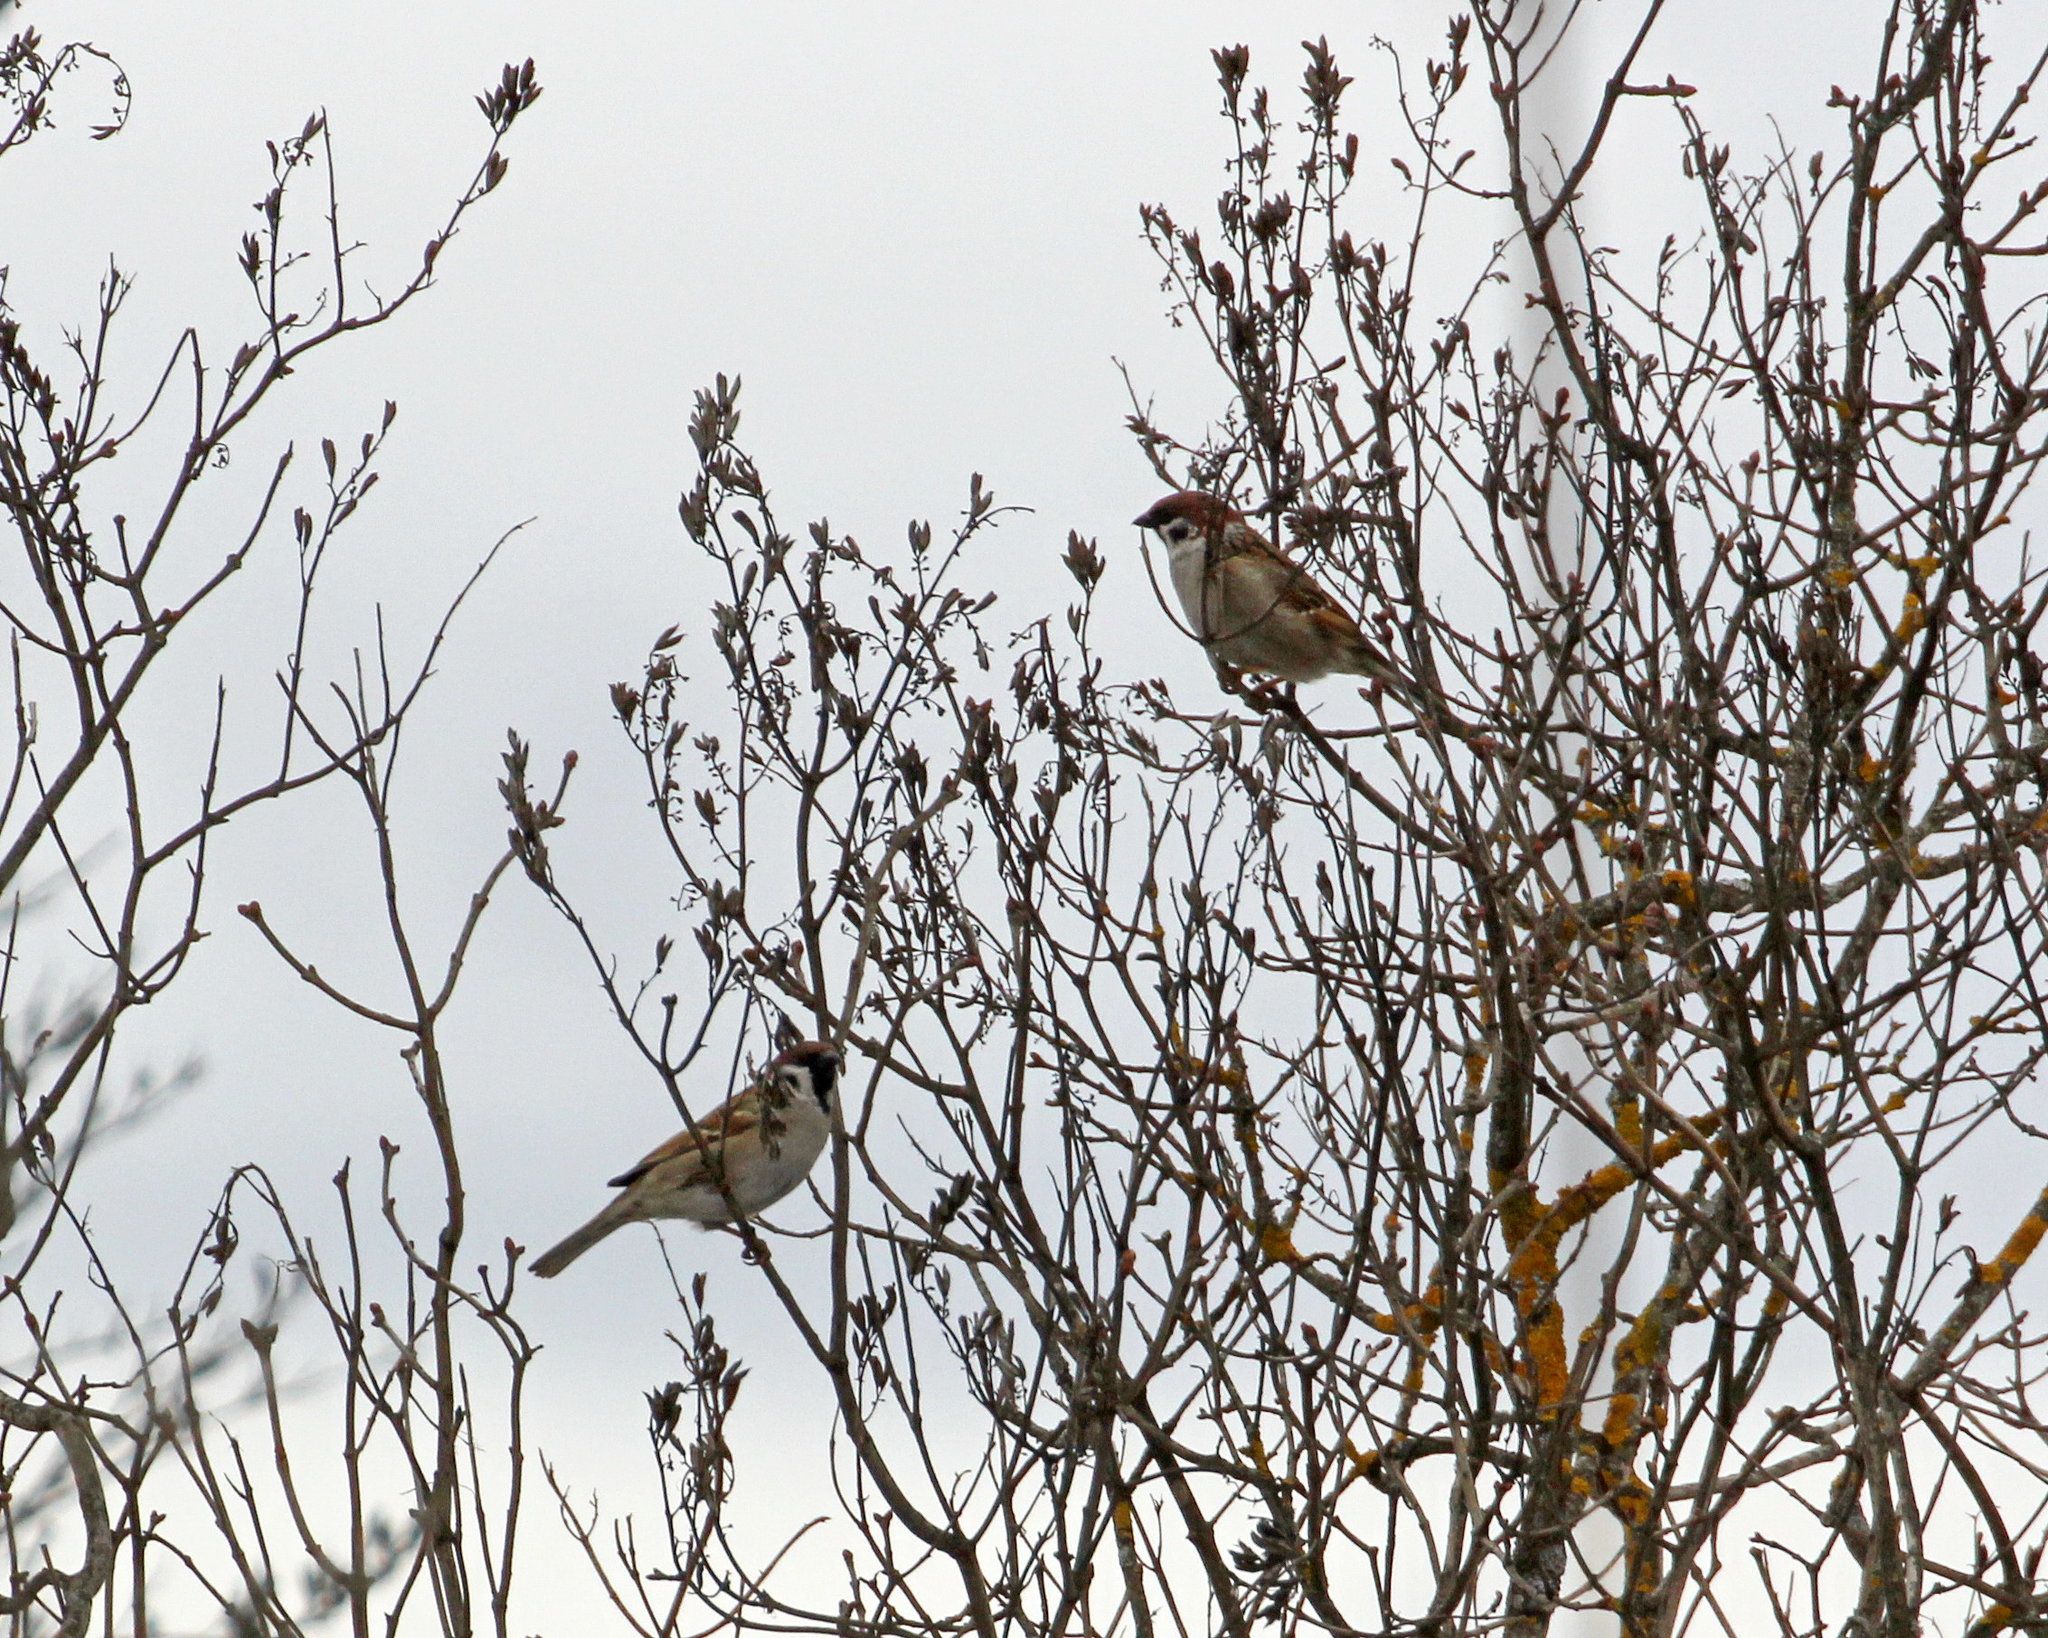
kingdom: Animalia
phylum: Chordata
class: Aves
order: Passeriformes
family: Passeridae
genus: Passer
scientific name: Passer montanus
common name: Eurasian tree sparrow
